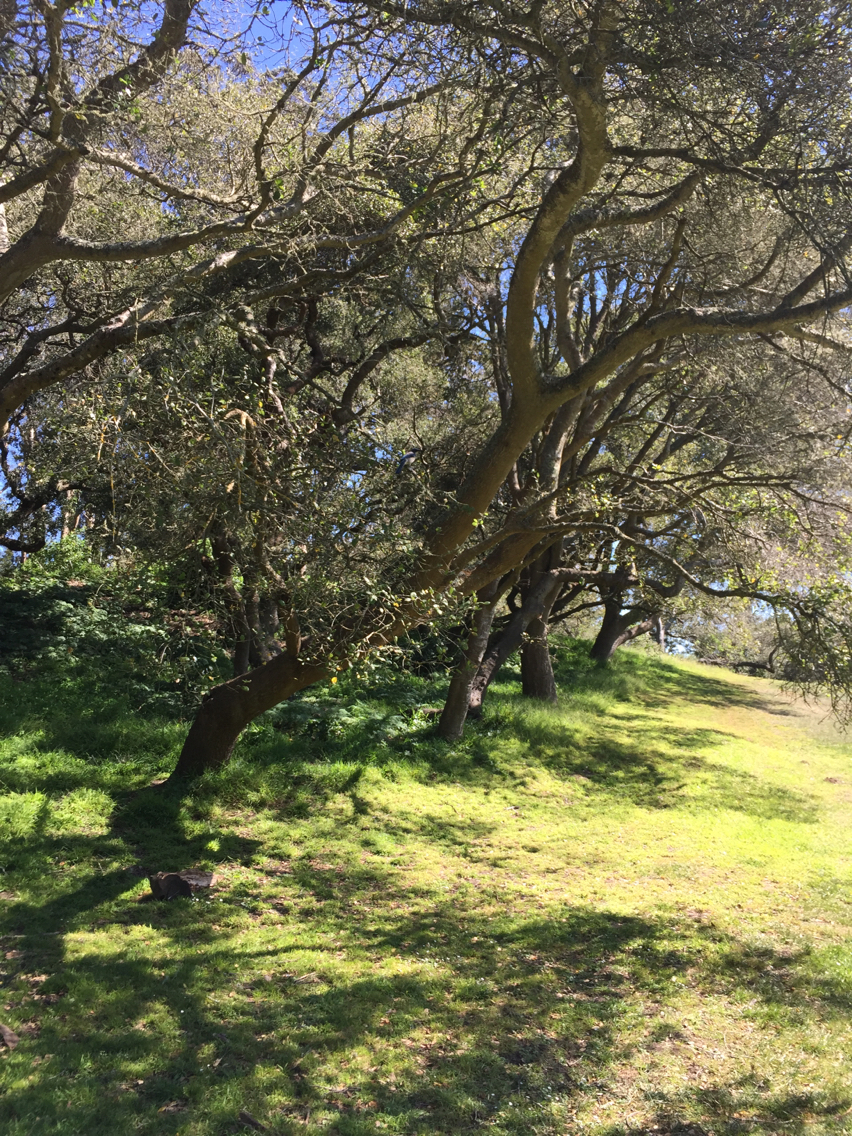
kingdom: Animalia
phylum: Chordata
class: Aves
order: Passeriformes
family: Corvidae
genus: Aphelocoma
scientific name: Aphelocoma californica
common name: California scrub-jay
